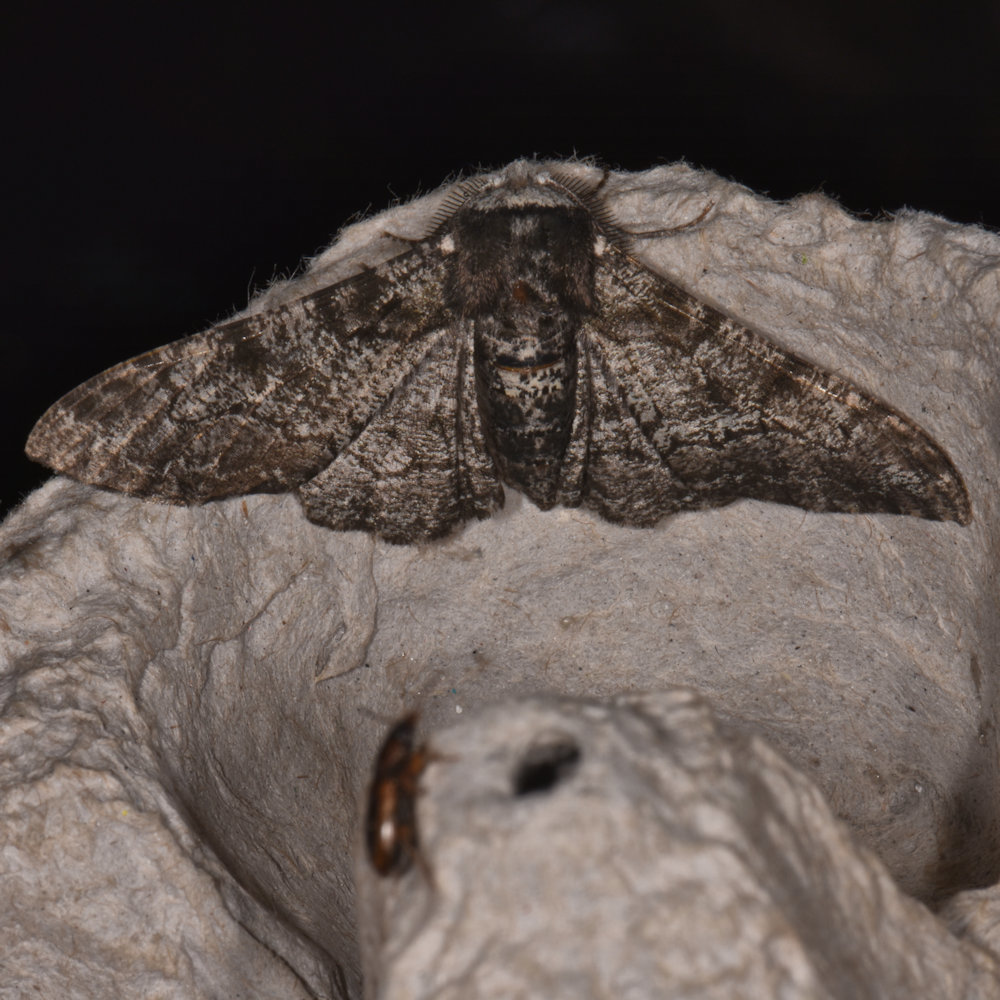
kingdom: Animalia
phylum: Arthropoda
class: Insecta
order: Lepidoptera
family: Geometridae
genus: Biston
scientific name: Biston betularia
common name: Peppered moth
